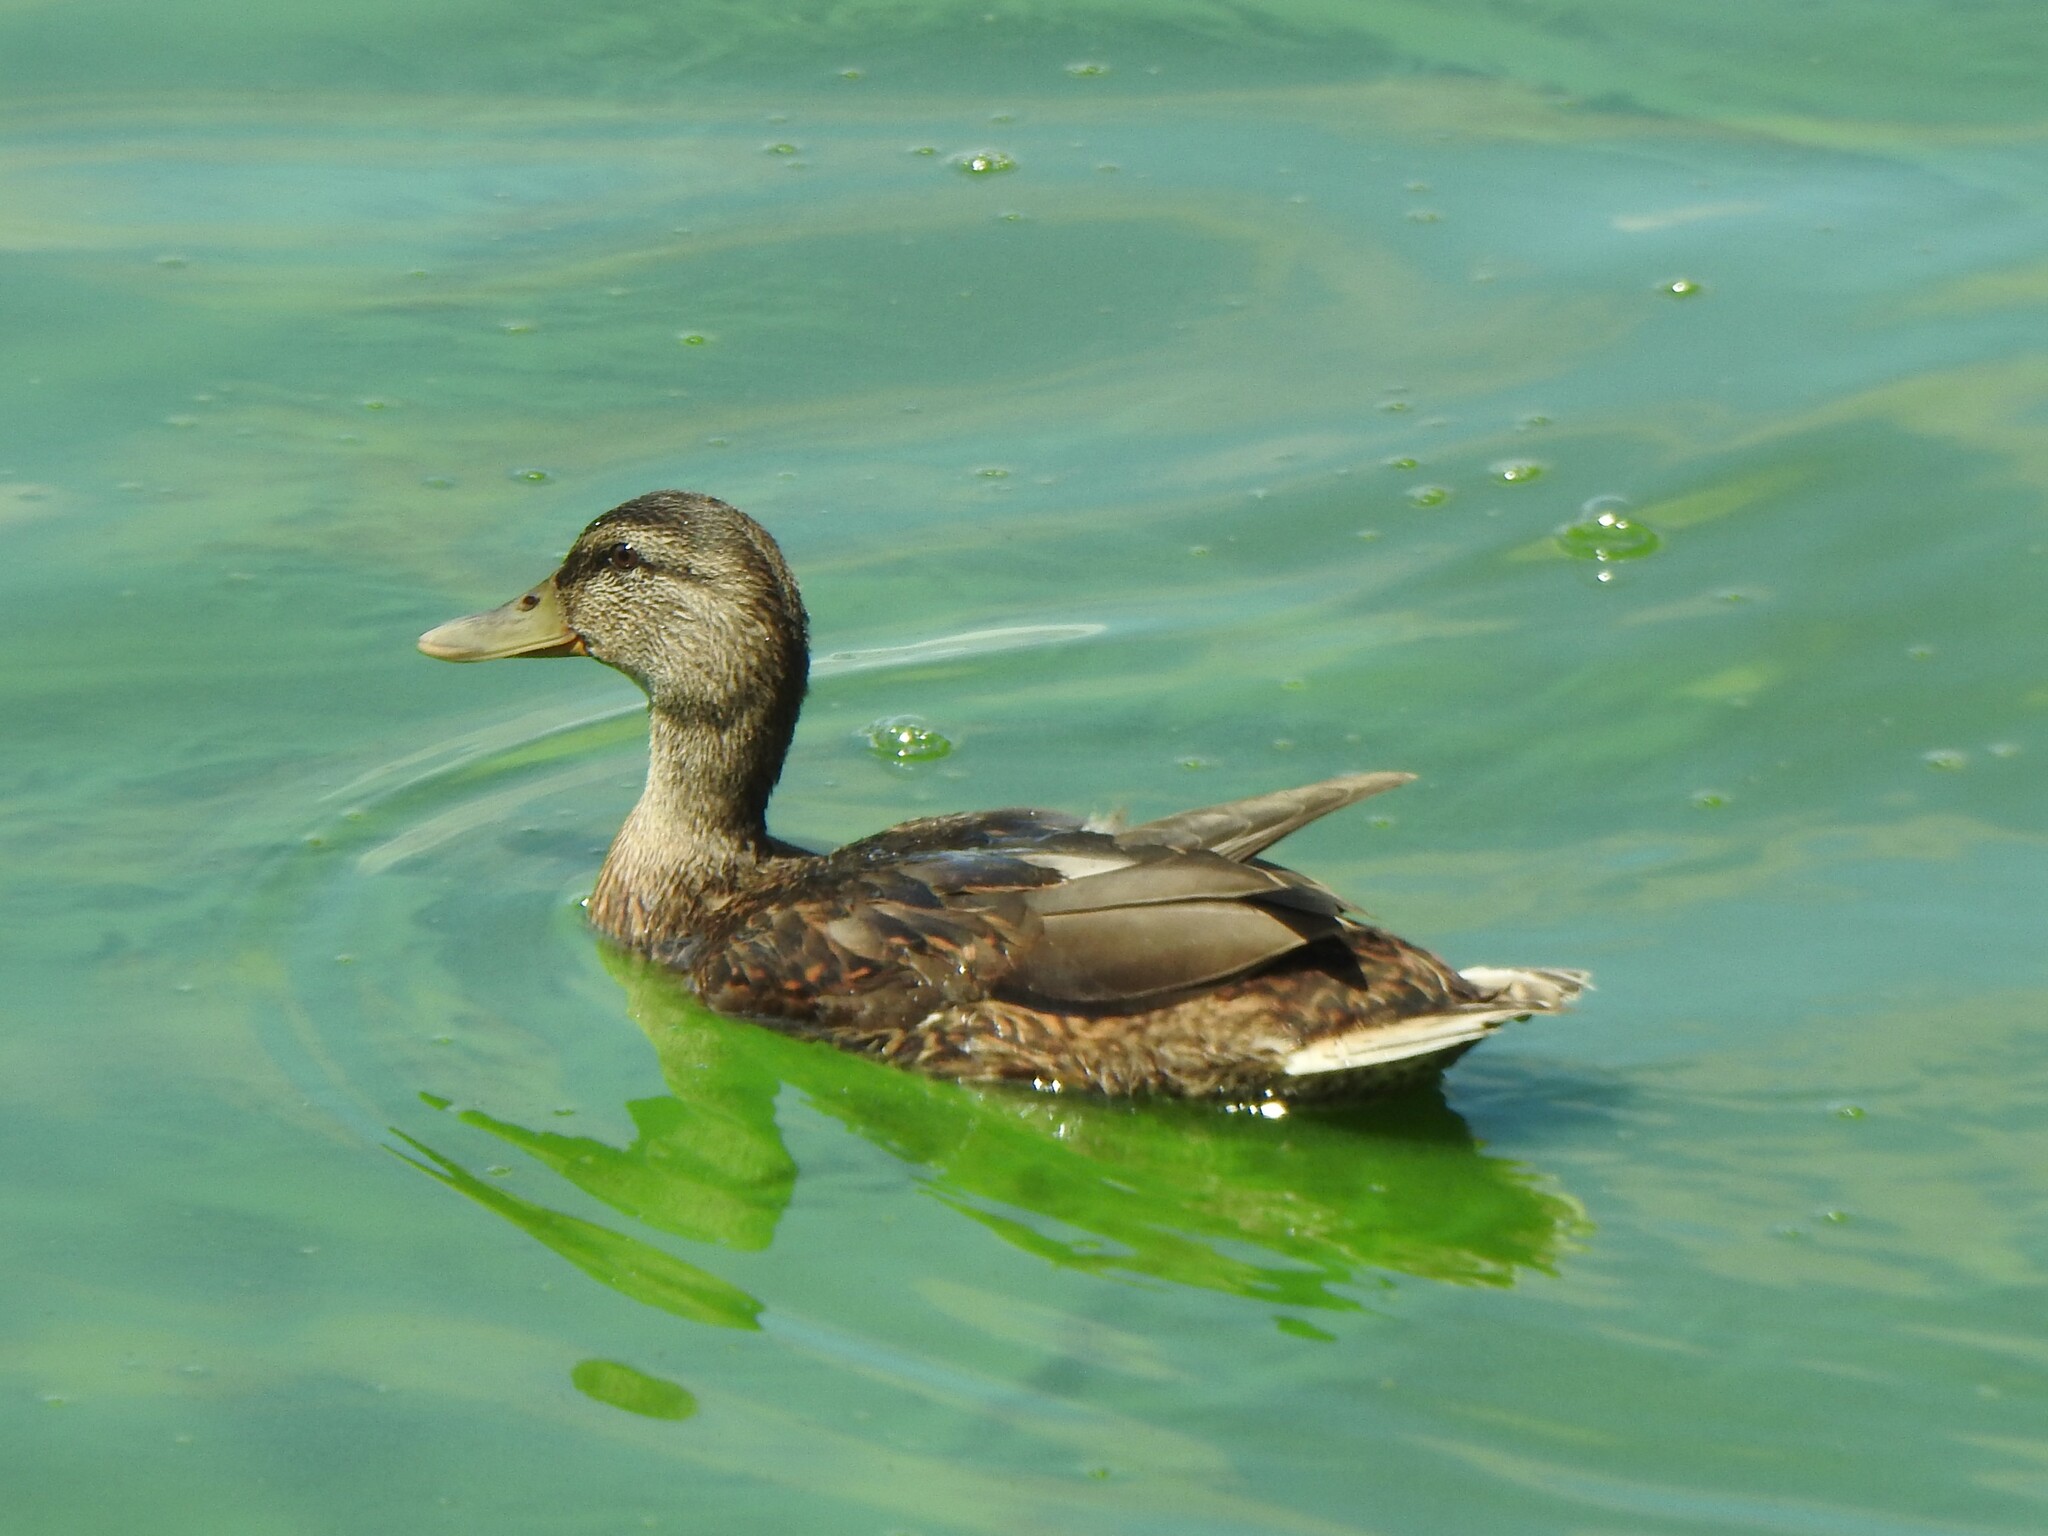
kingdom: Animalia
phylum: Chordata
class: Aves
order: Anseriformes
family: Anatidae
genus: Anas
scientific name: Anas platyrhynchos
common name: Mallard
